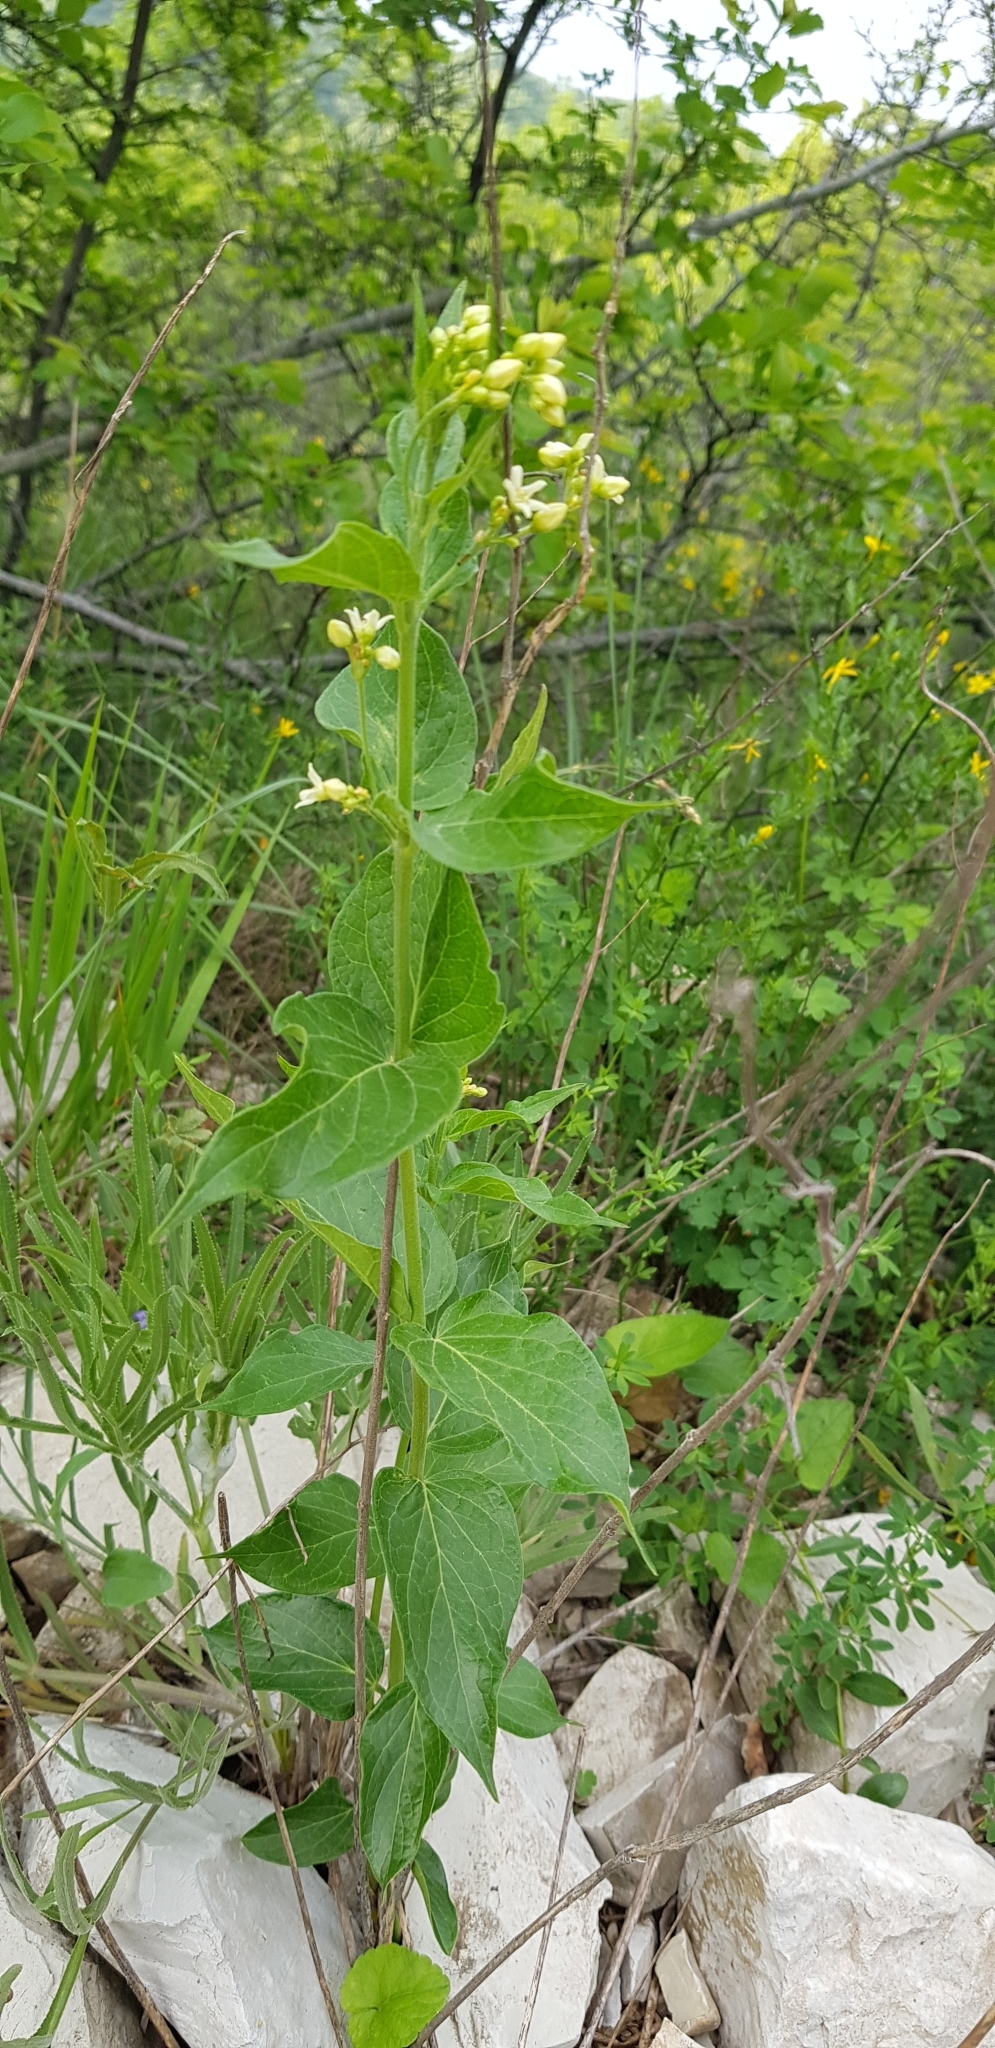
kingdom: Plantae
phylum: Tracheophyta
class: Magnoliopsida
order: Gentianales
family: Apocynaceae
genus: Vincetoxicum
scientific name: Vincetoxicum hirundinaria
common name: White swallowwort
